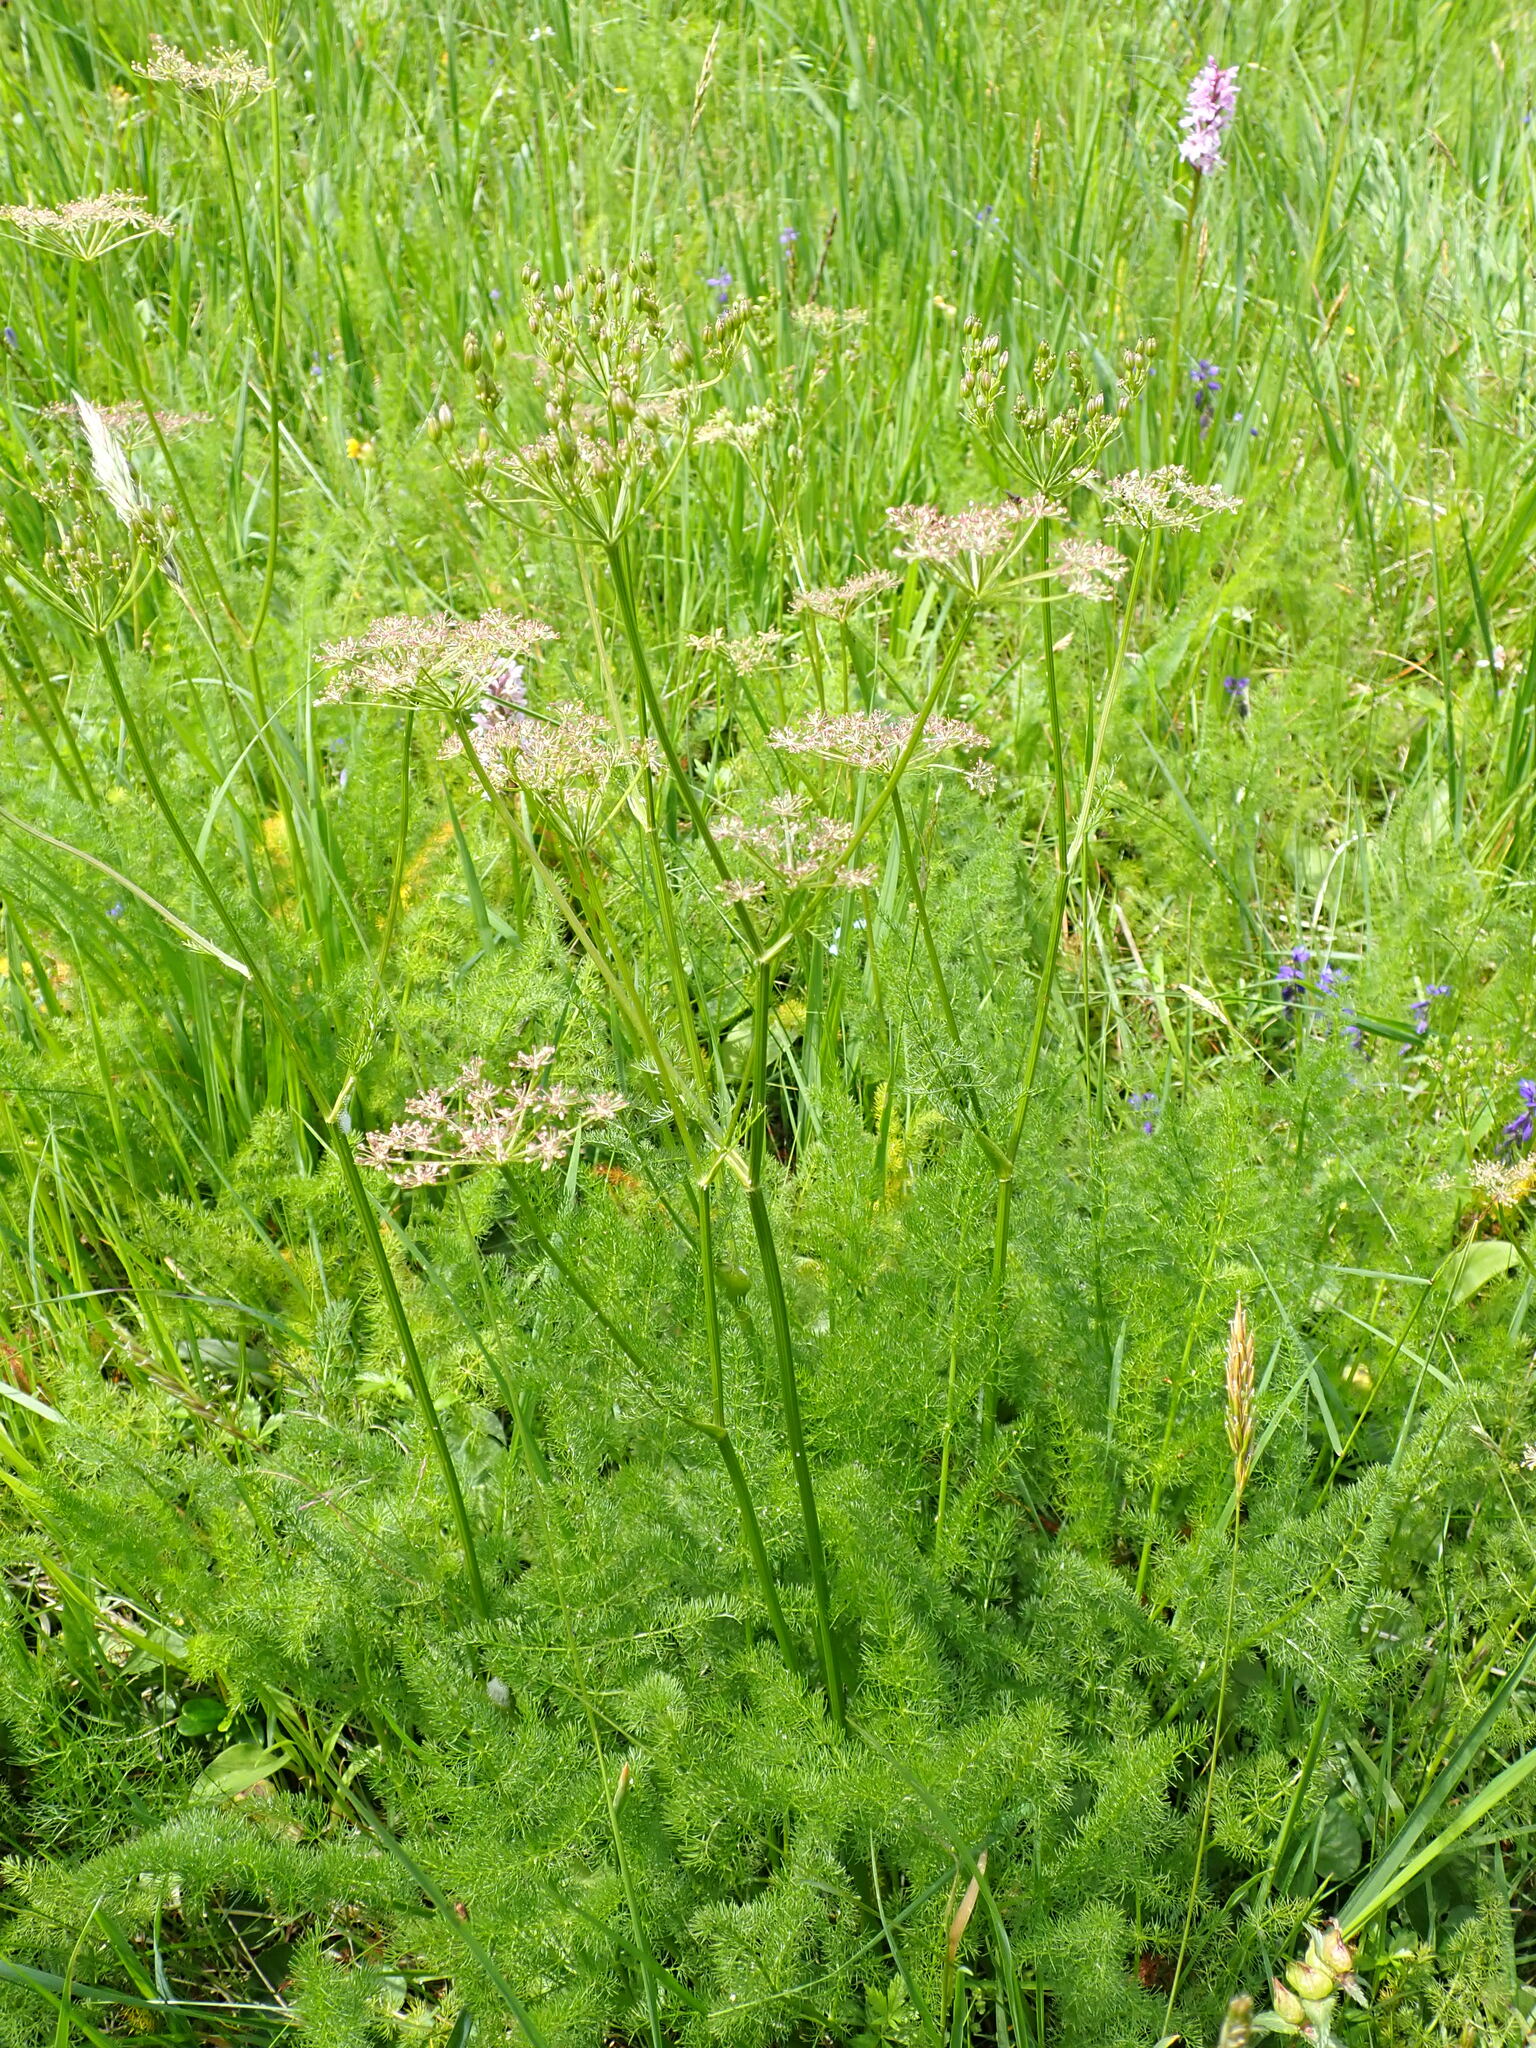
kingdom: Plantae
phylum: Tracheophyta
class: Magnoliopsida
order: Apiales
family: Apiaceae
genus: Meum
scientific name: Meum athamanticum
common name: Spignel
